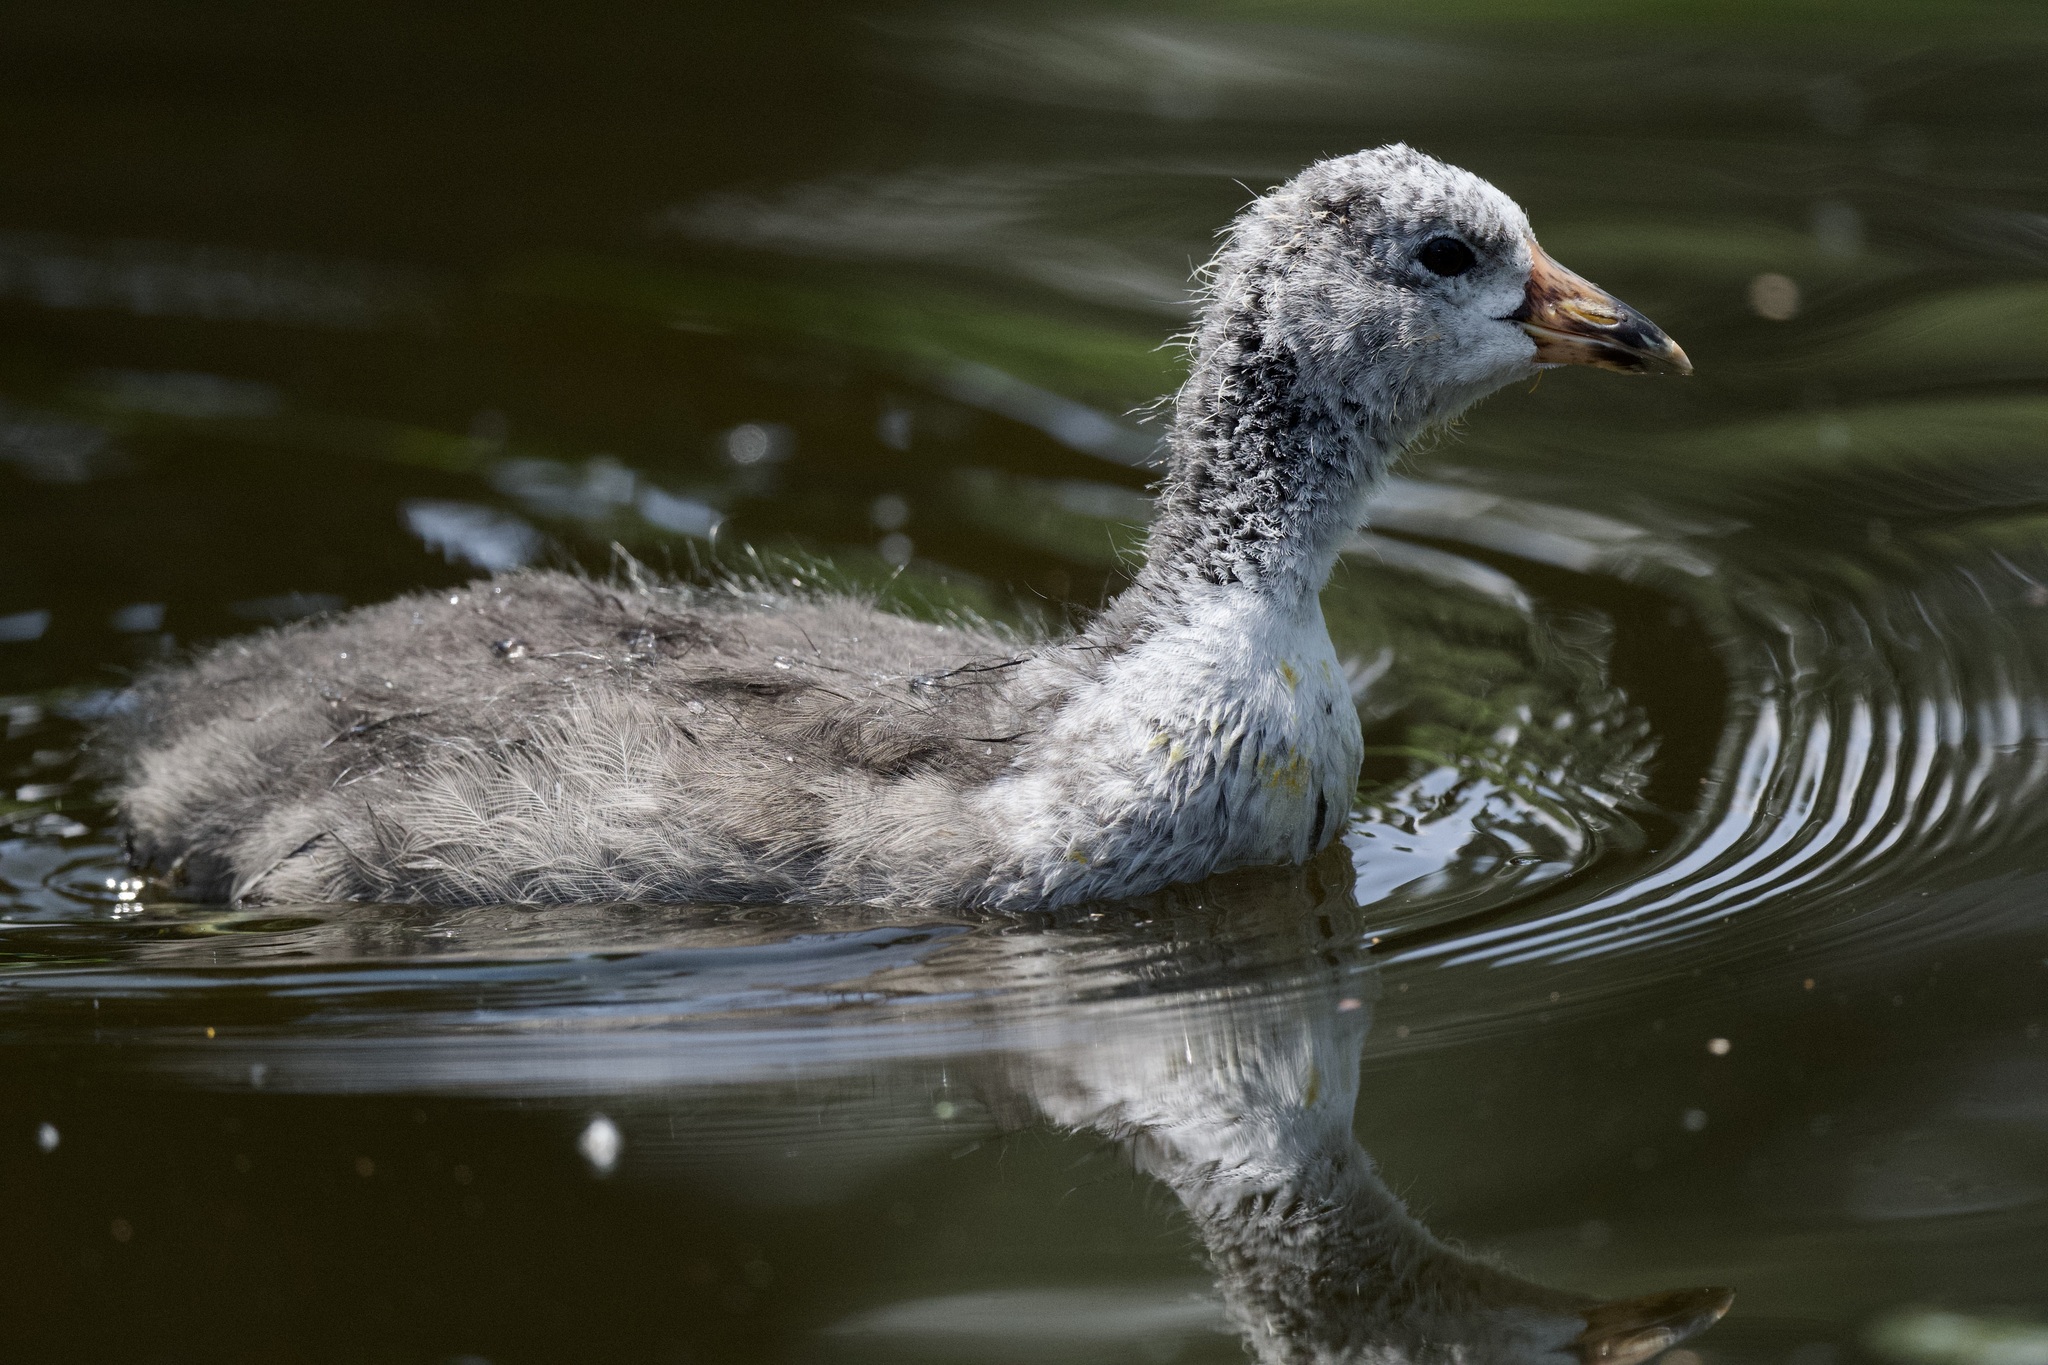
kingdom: Animalia
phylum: Chordata
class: Aves
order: Gruiformes
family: Rallidae
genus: Fulica
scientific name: Fulica americana
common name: American coot
